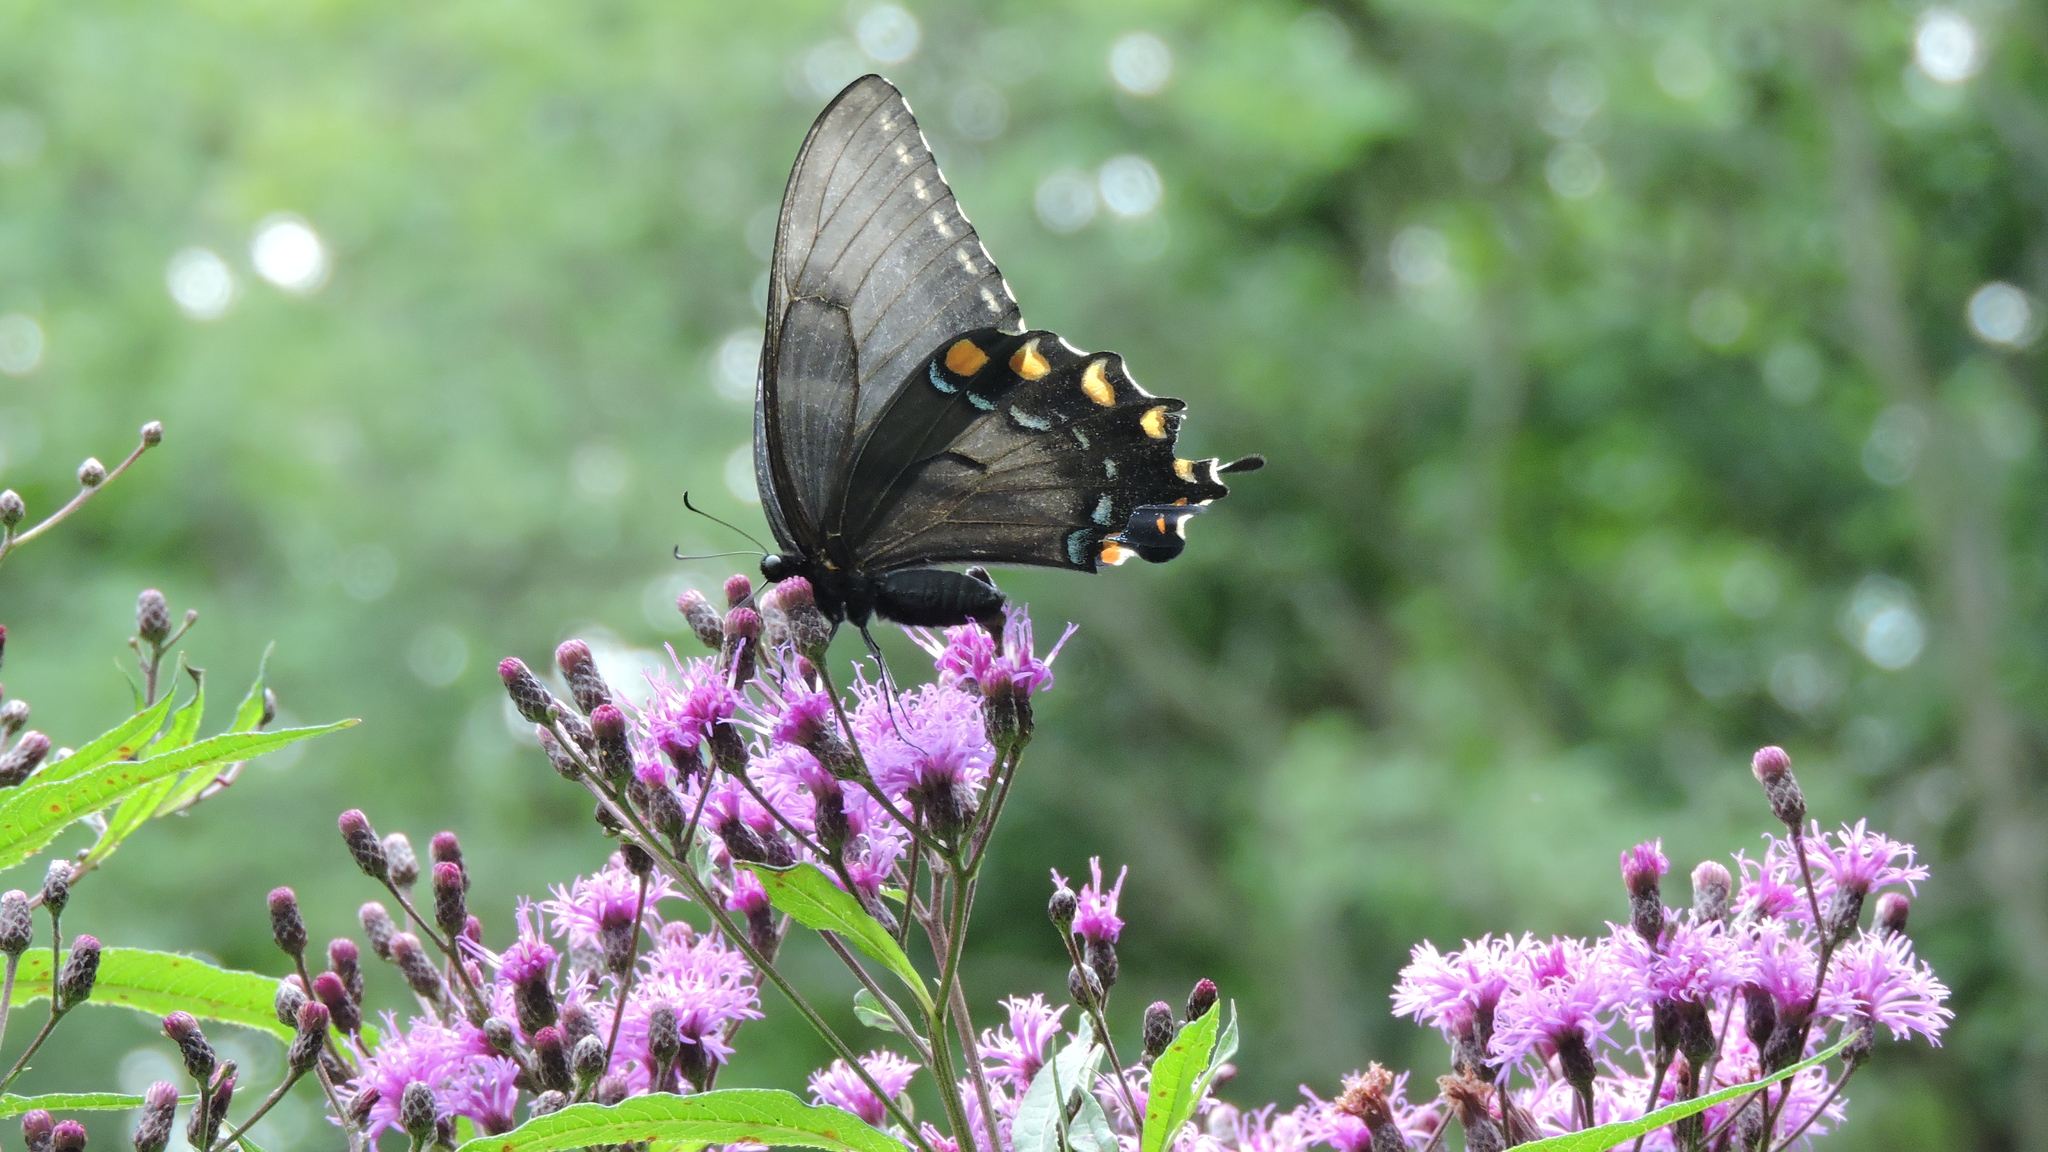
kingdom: Animalia
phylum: Arthropoda
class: Insecta
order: Lepidoptera
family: Papilionidae
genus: Papilio
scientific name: Papilio glaucus
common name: Tiger swallowtail
